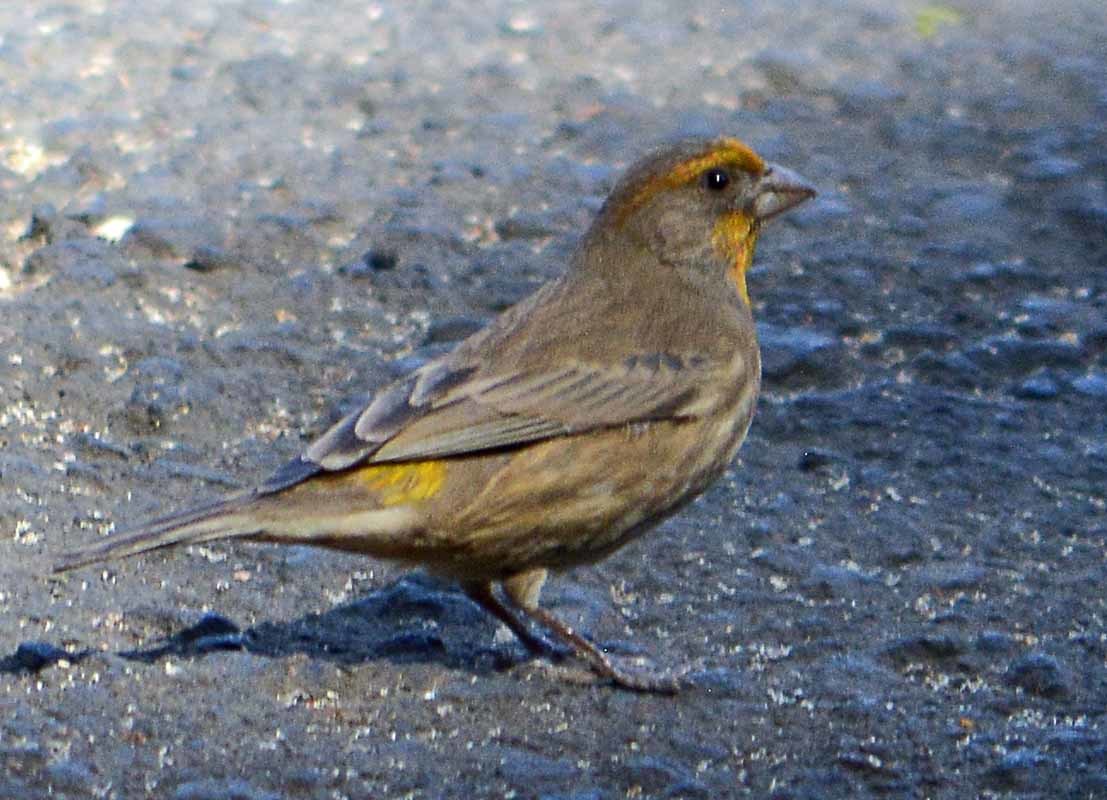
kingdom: Animalia
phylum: Chordata
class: Aves
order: Passeriformes
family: Fringillidae
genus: Haemorhous
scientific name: Haemorhous mexicanus
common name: House finch
